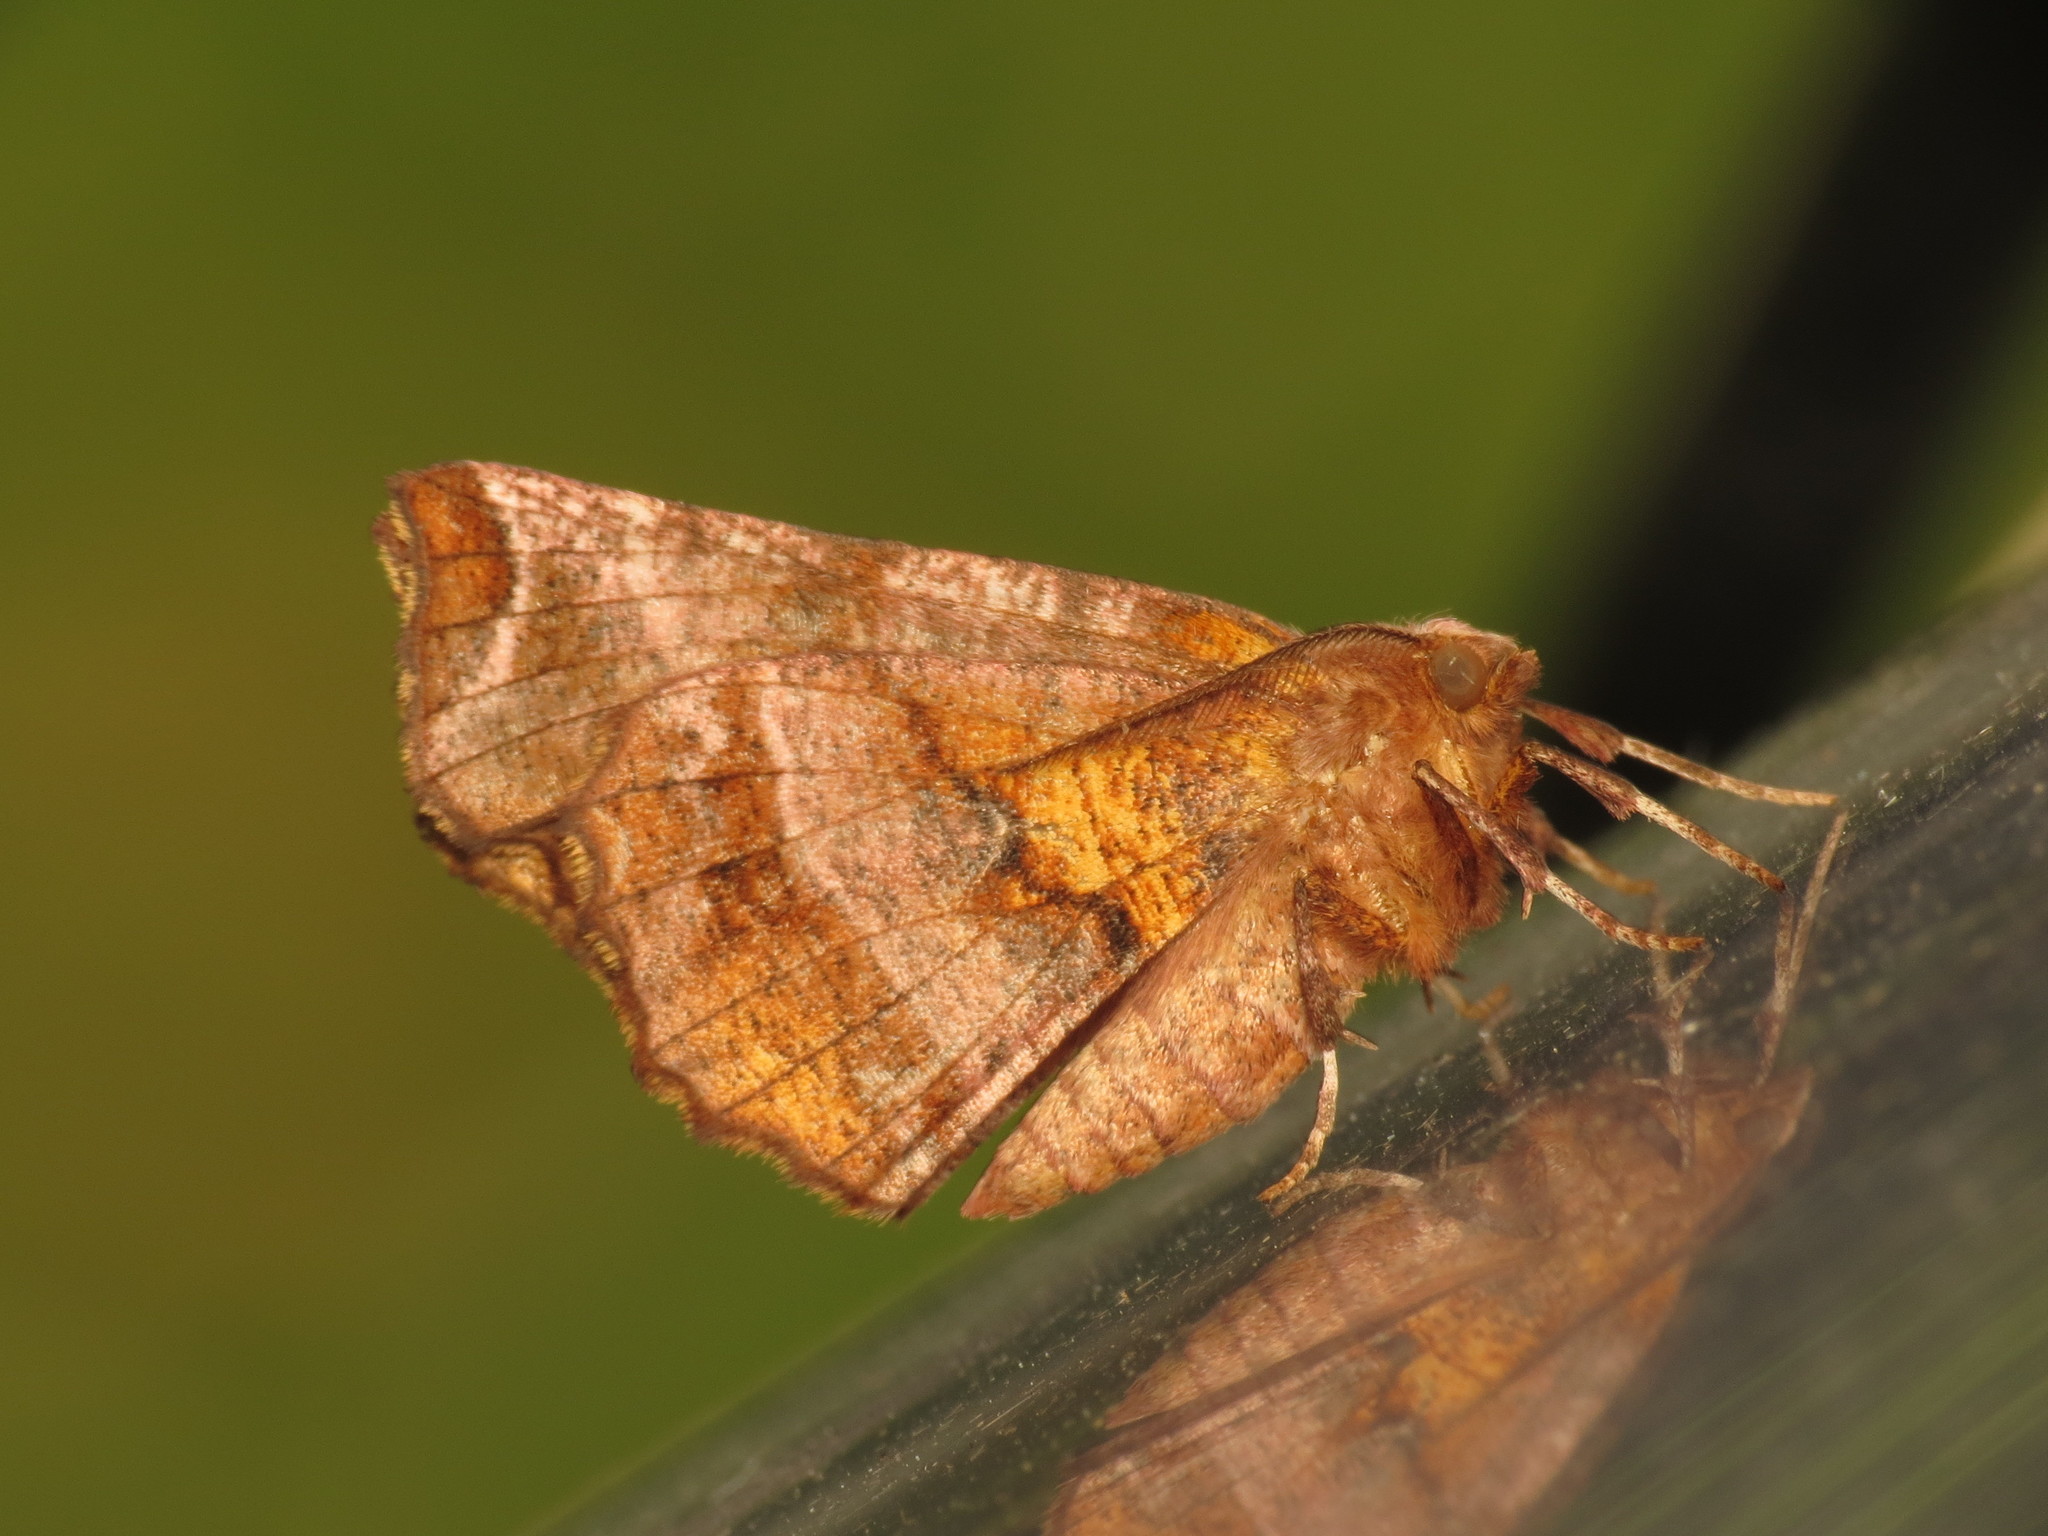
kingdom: Animalia
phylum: Arthropoda
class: Insecta
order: Lepidoptera
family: Geometridae
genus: Selenia
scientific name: Selenia dentaria
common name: Early thorn
